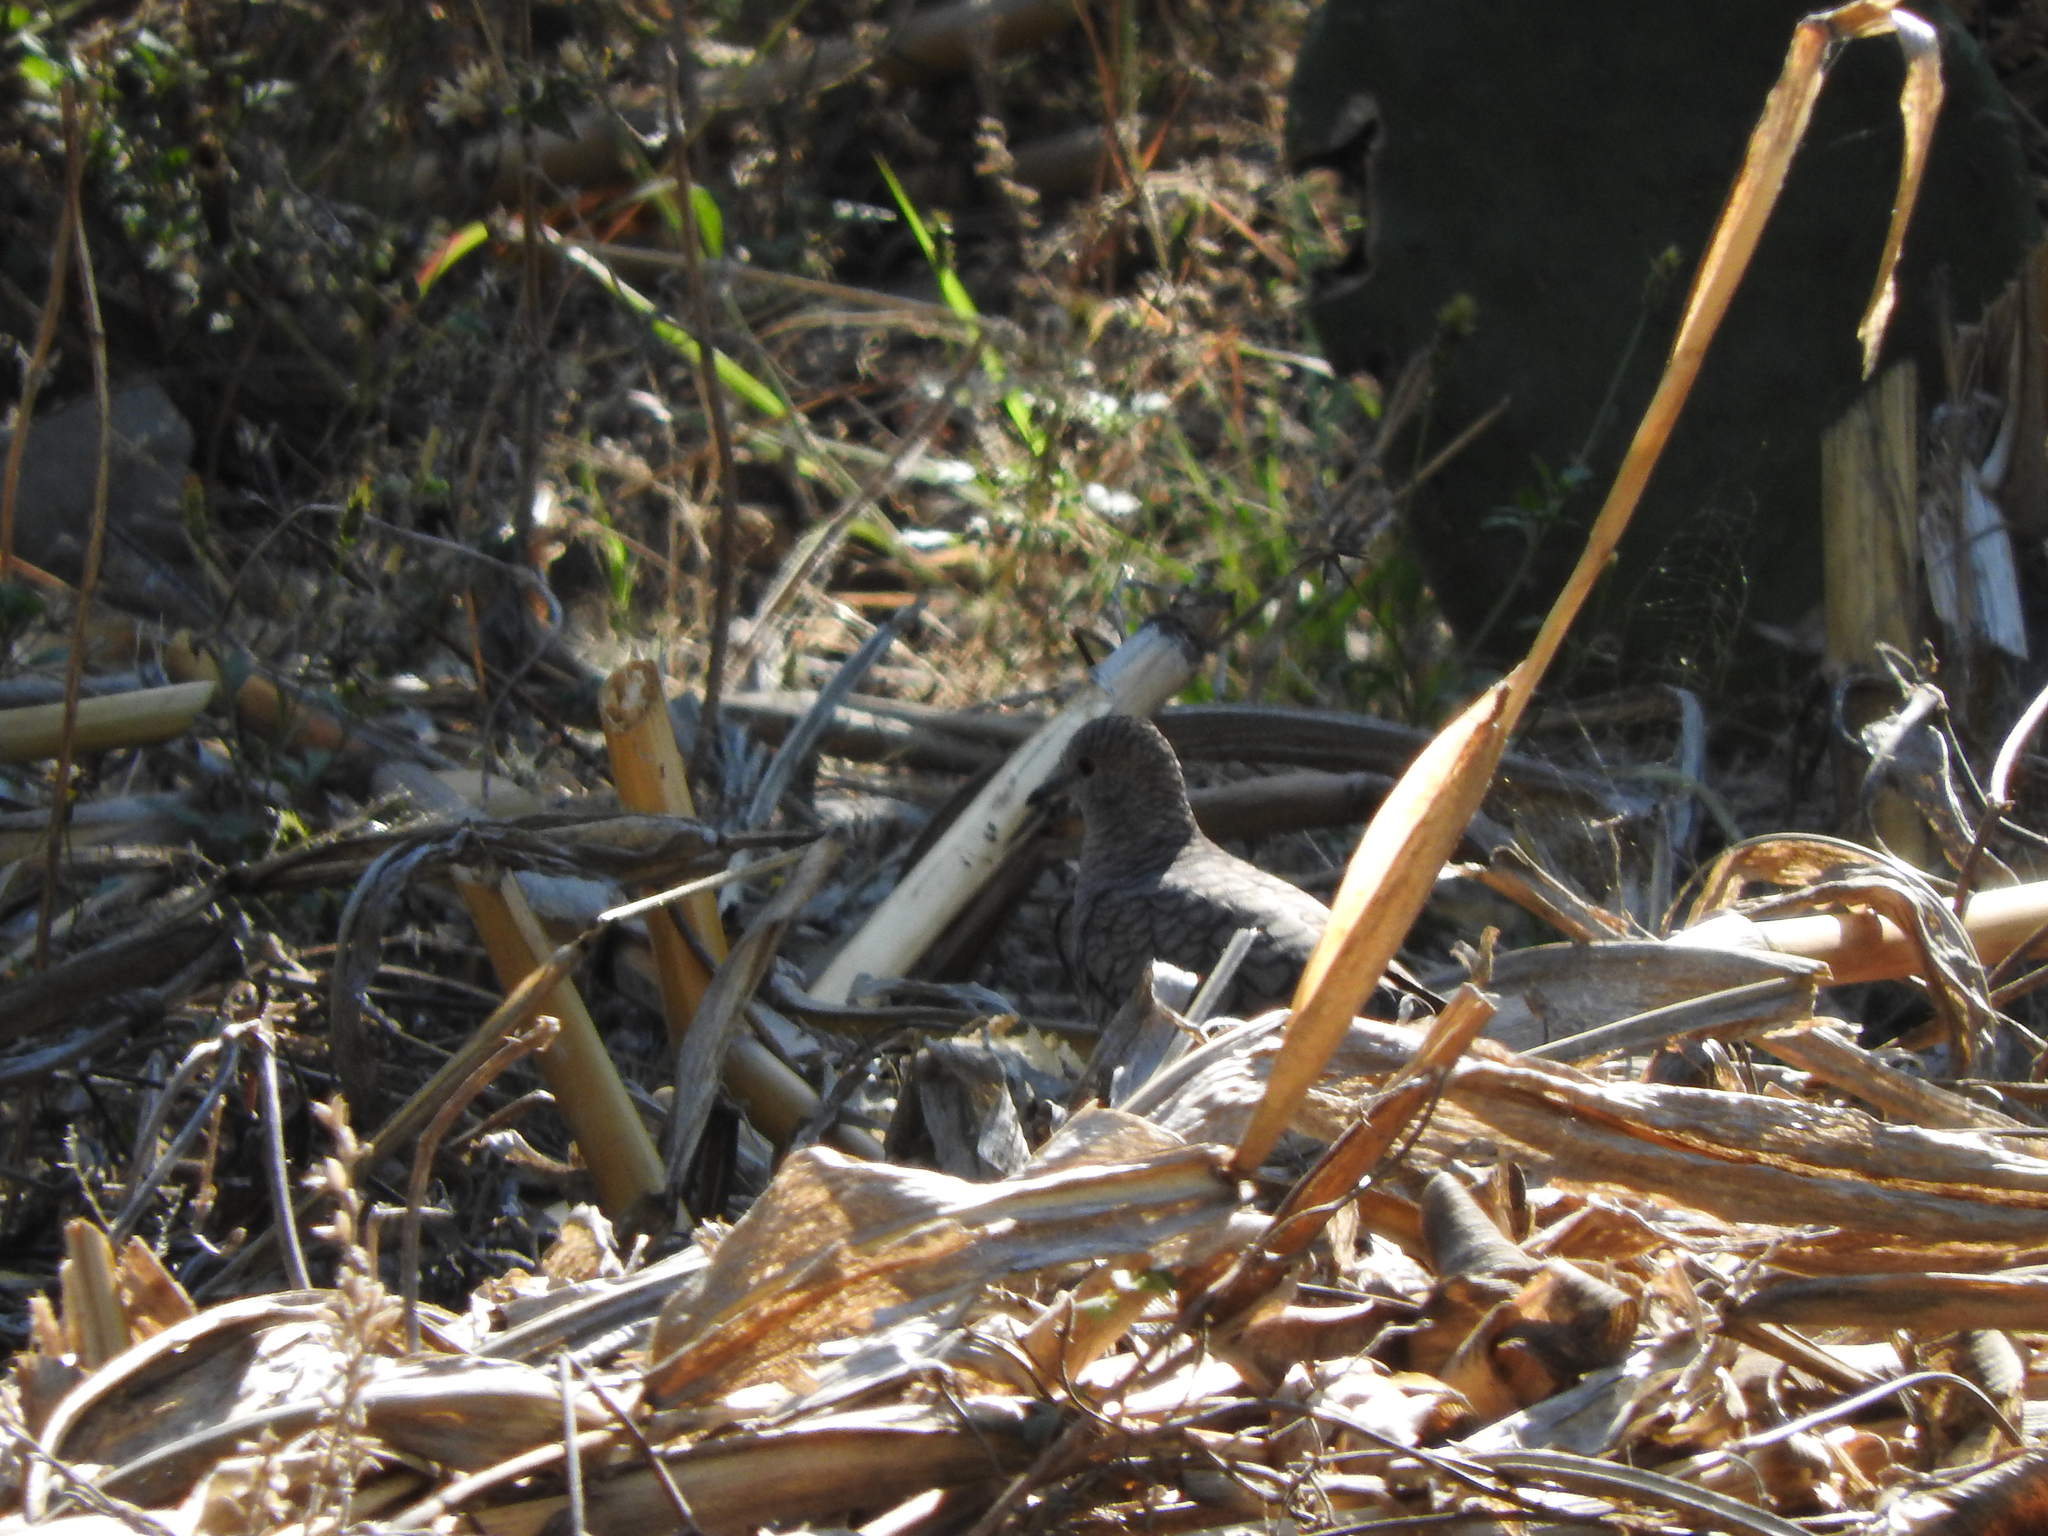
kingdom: Animalia
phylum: Chordata
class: Aves
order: Columbiformes
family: Columbidae
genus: Columbina
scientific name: Columbina inca
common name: Inca dove
